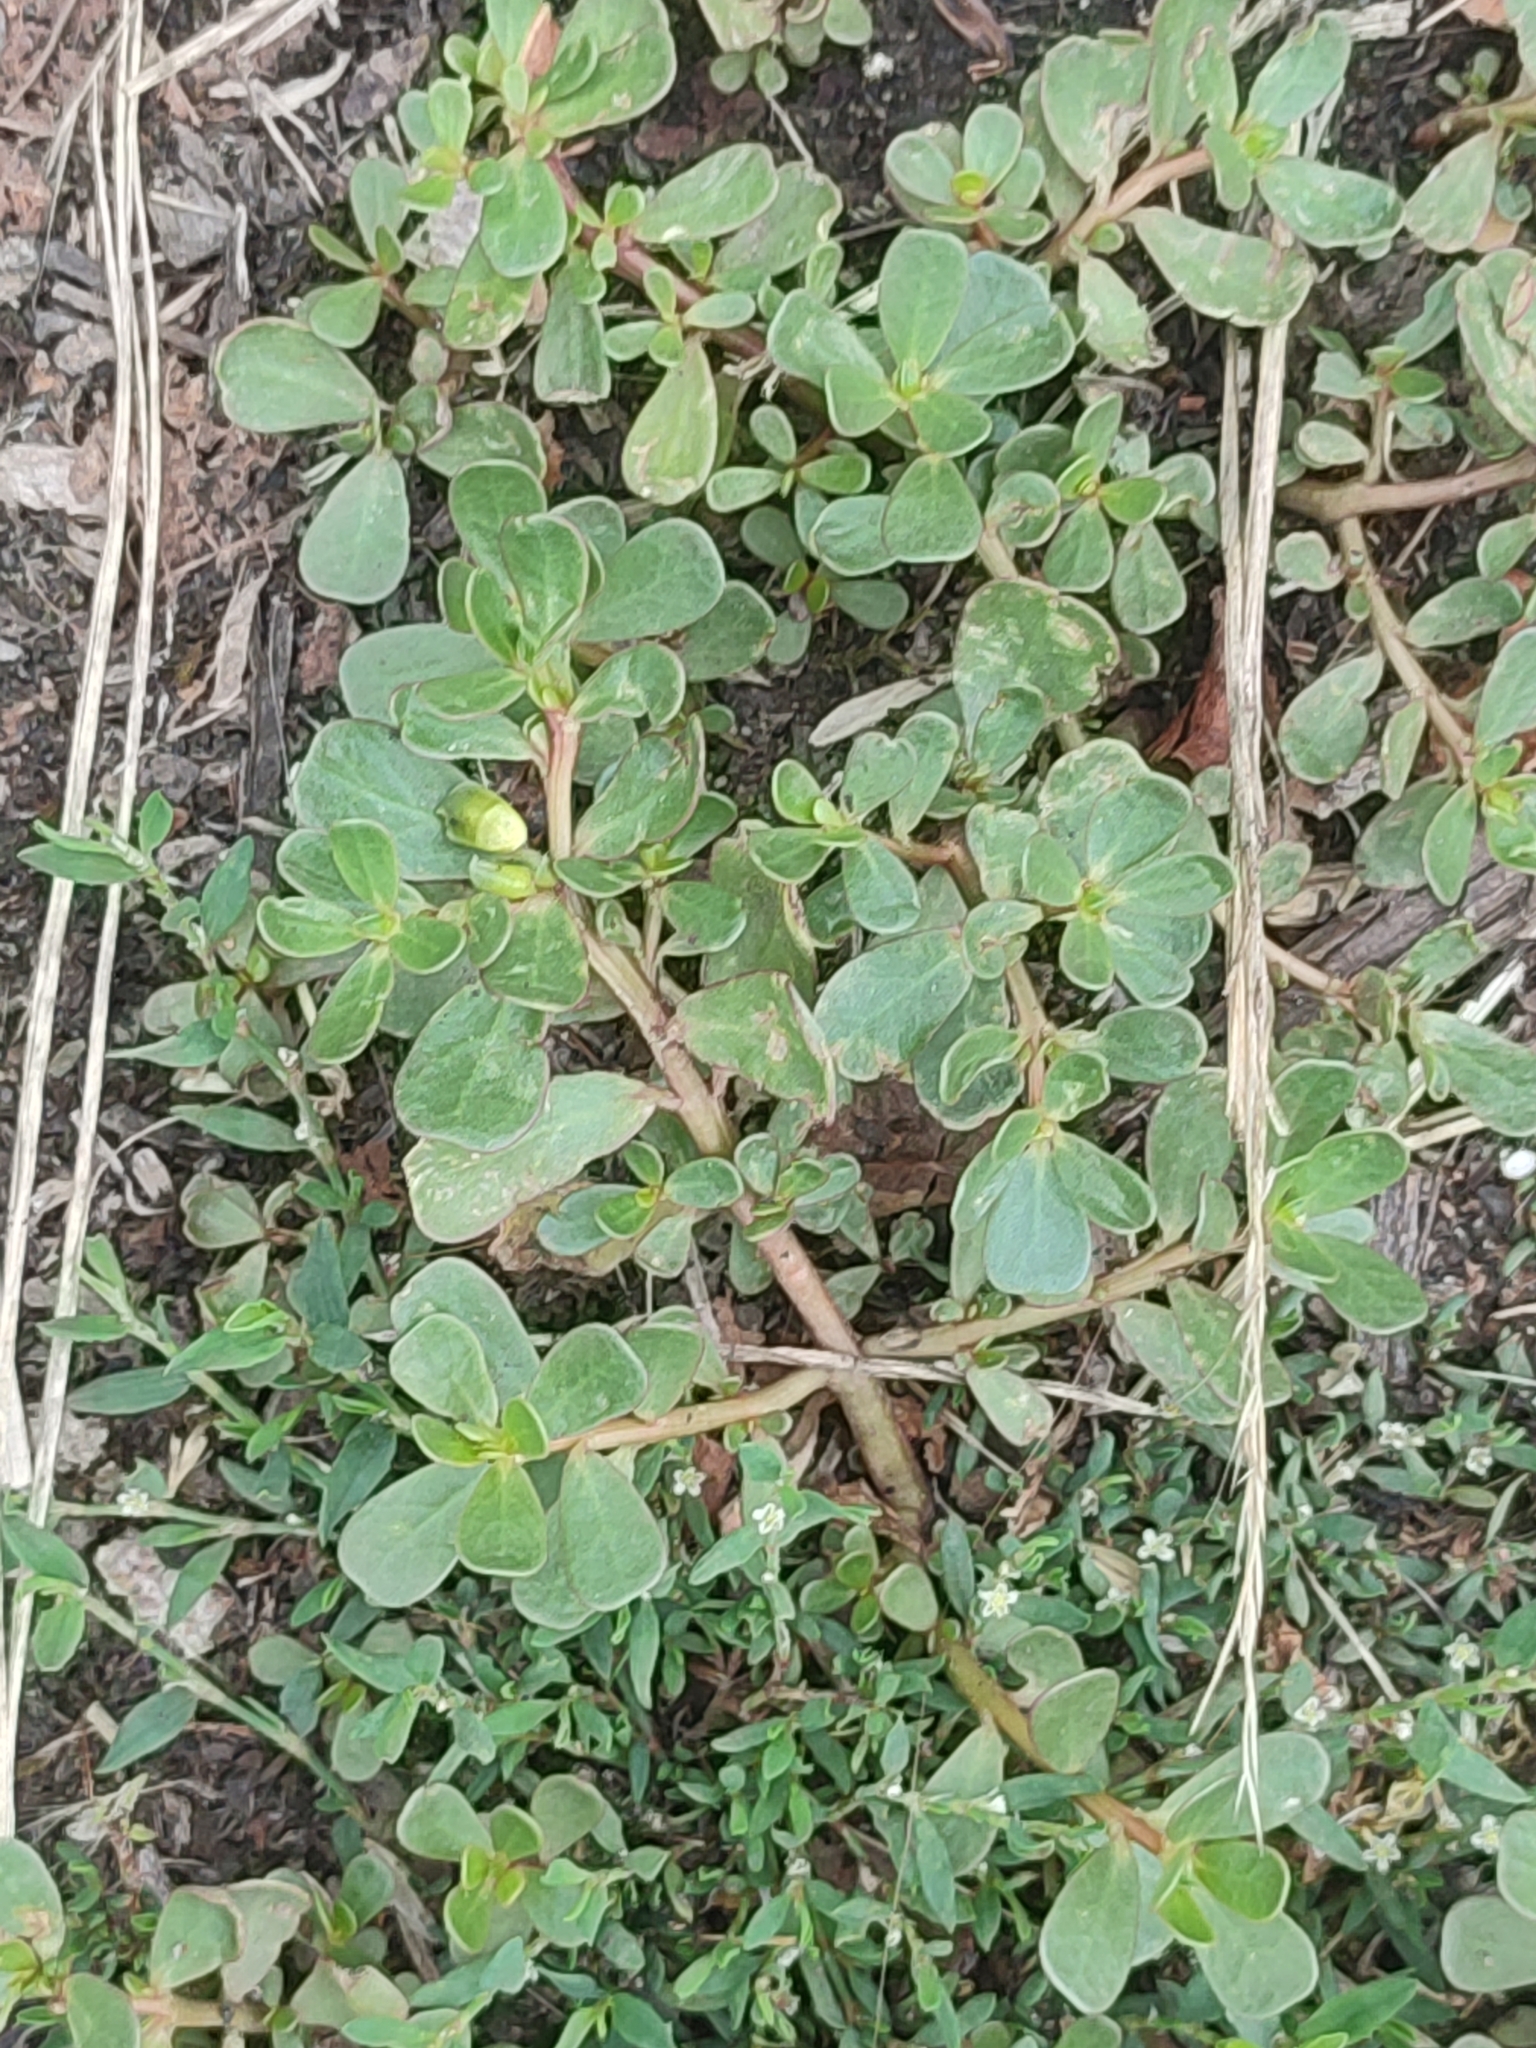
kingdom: Plantae
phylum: Tracheophyta
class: Magnoliopsida
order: Caryophyllales
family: Portulacaceae
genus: Portulaca
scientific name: Portulaca oleracea
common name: Common purslane
